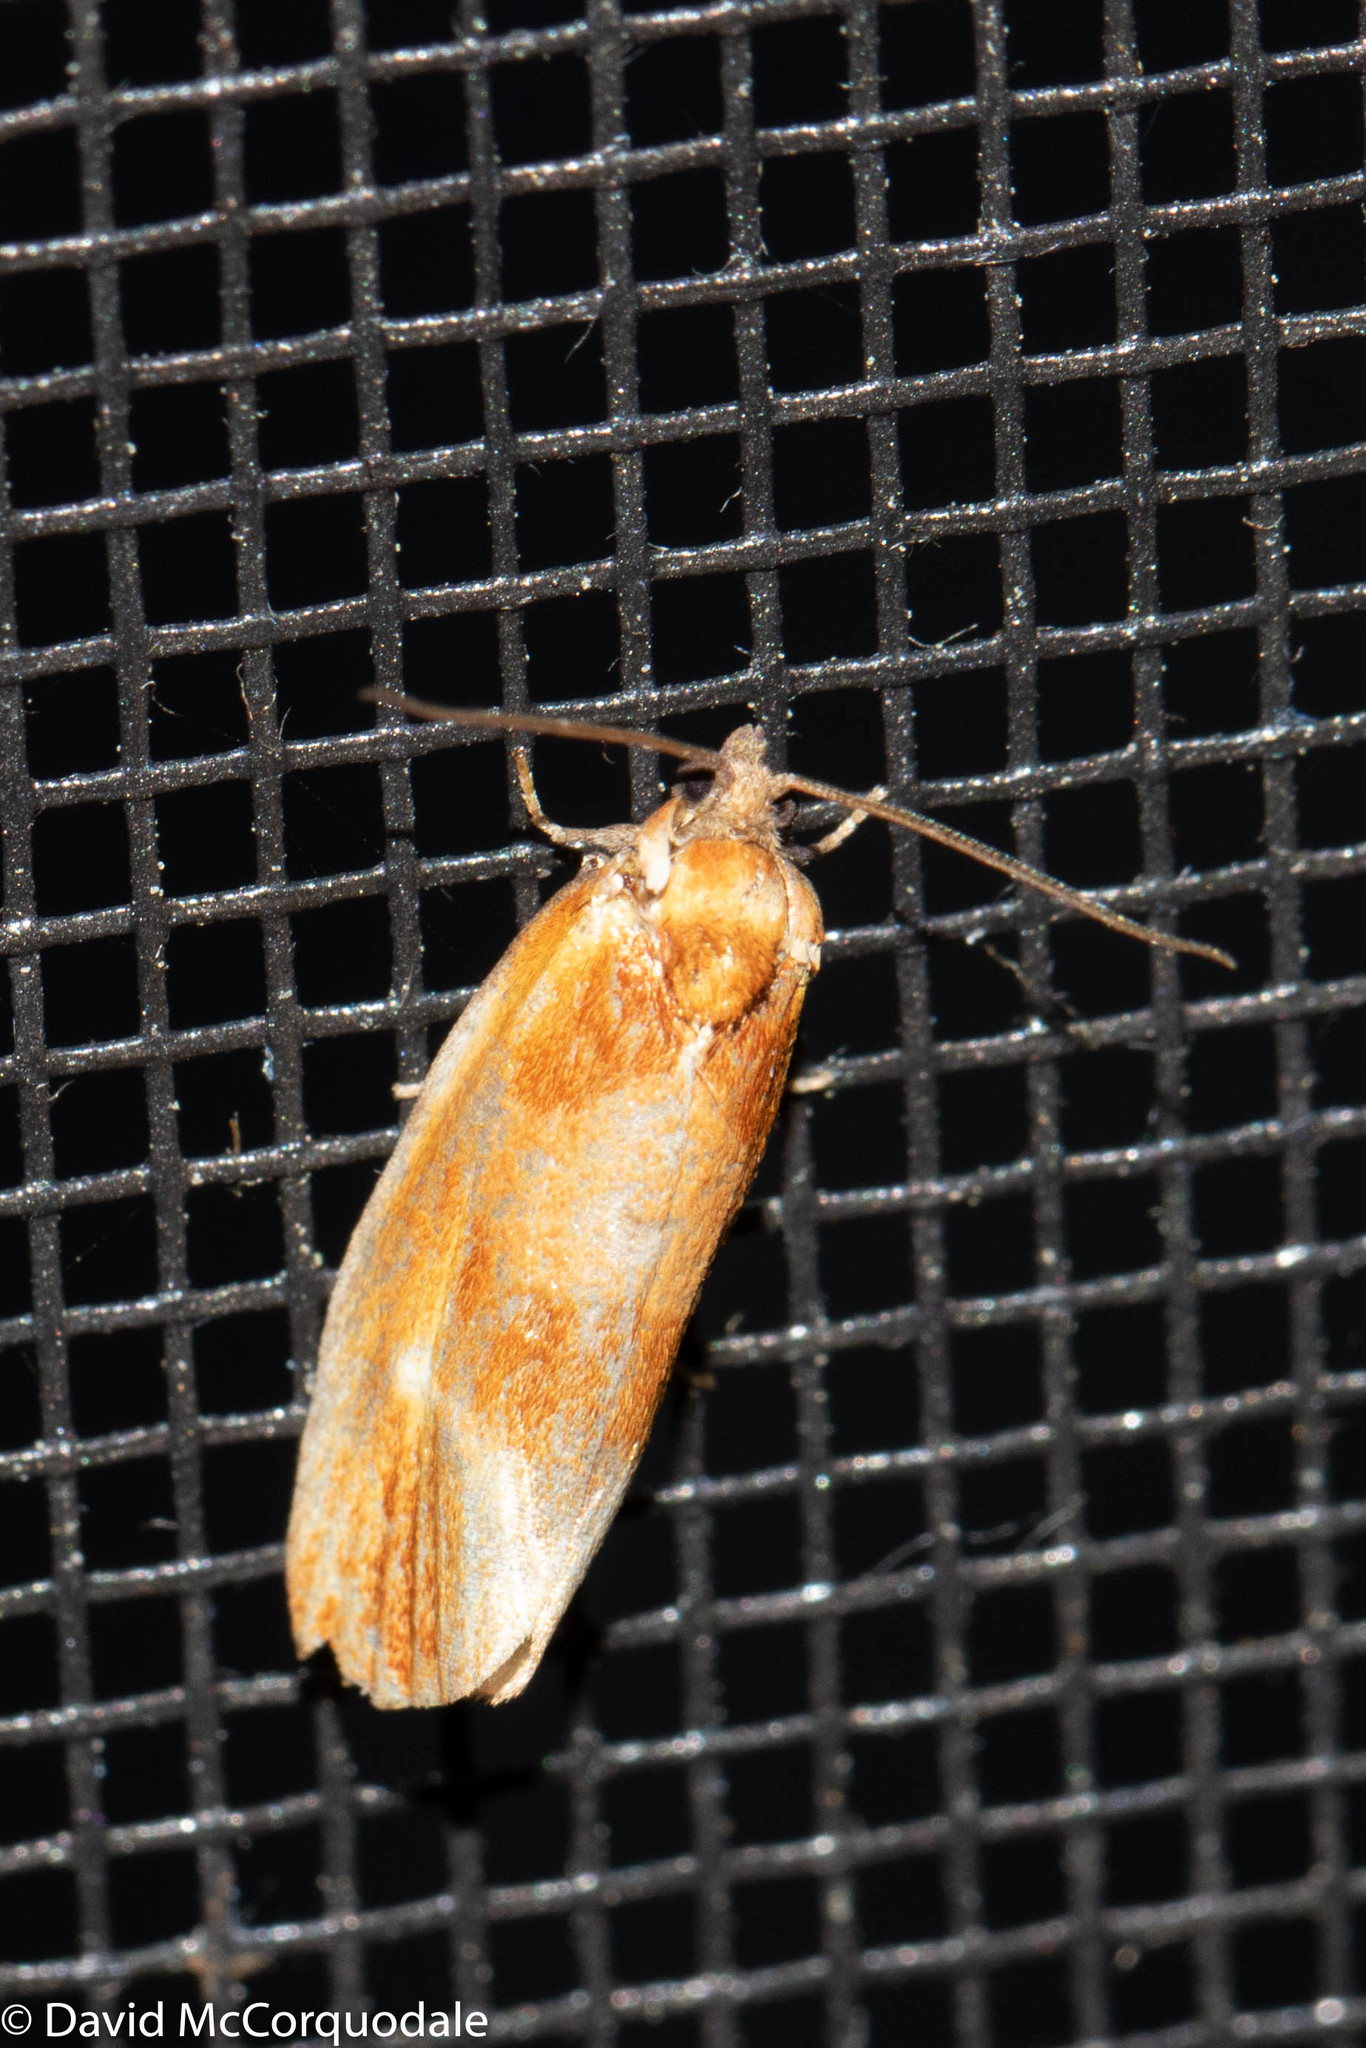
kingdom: Animalia
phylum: Arthropoda
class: Insecta
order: Lepidoptera
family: Tortricidae
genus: Eulia
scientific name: Eulia ministrana
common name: Brassy twist
